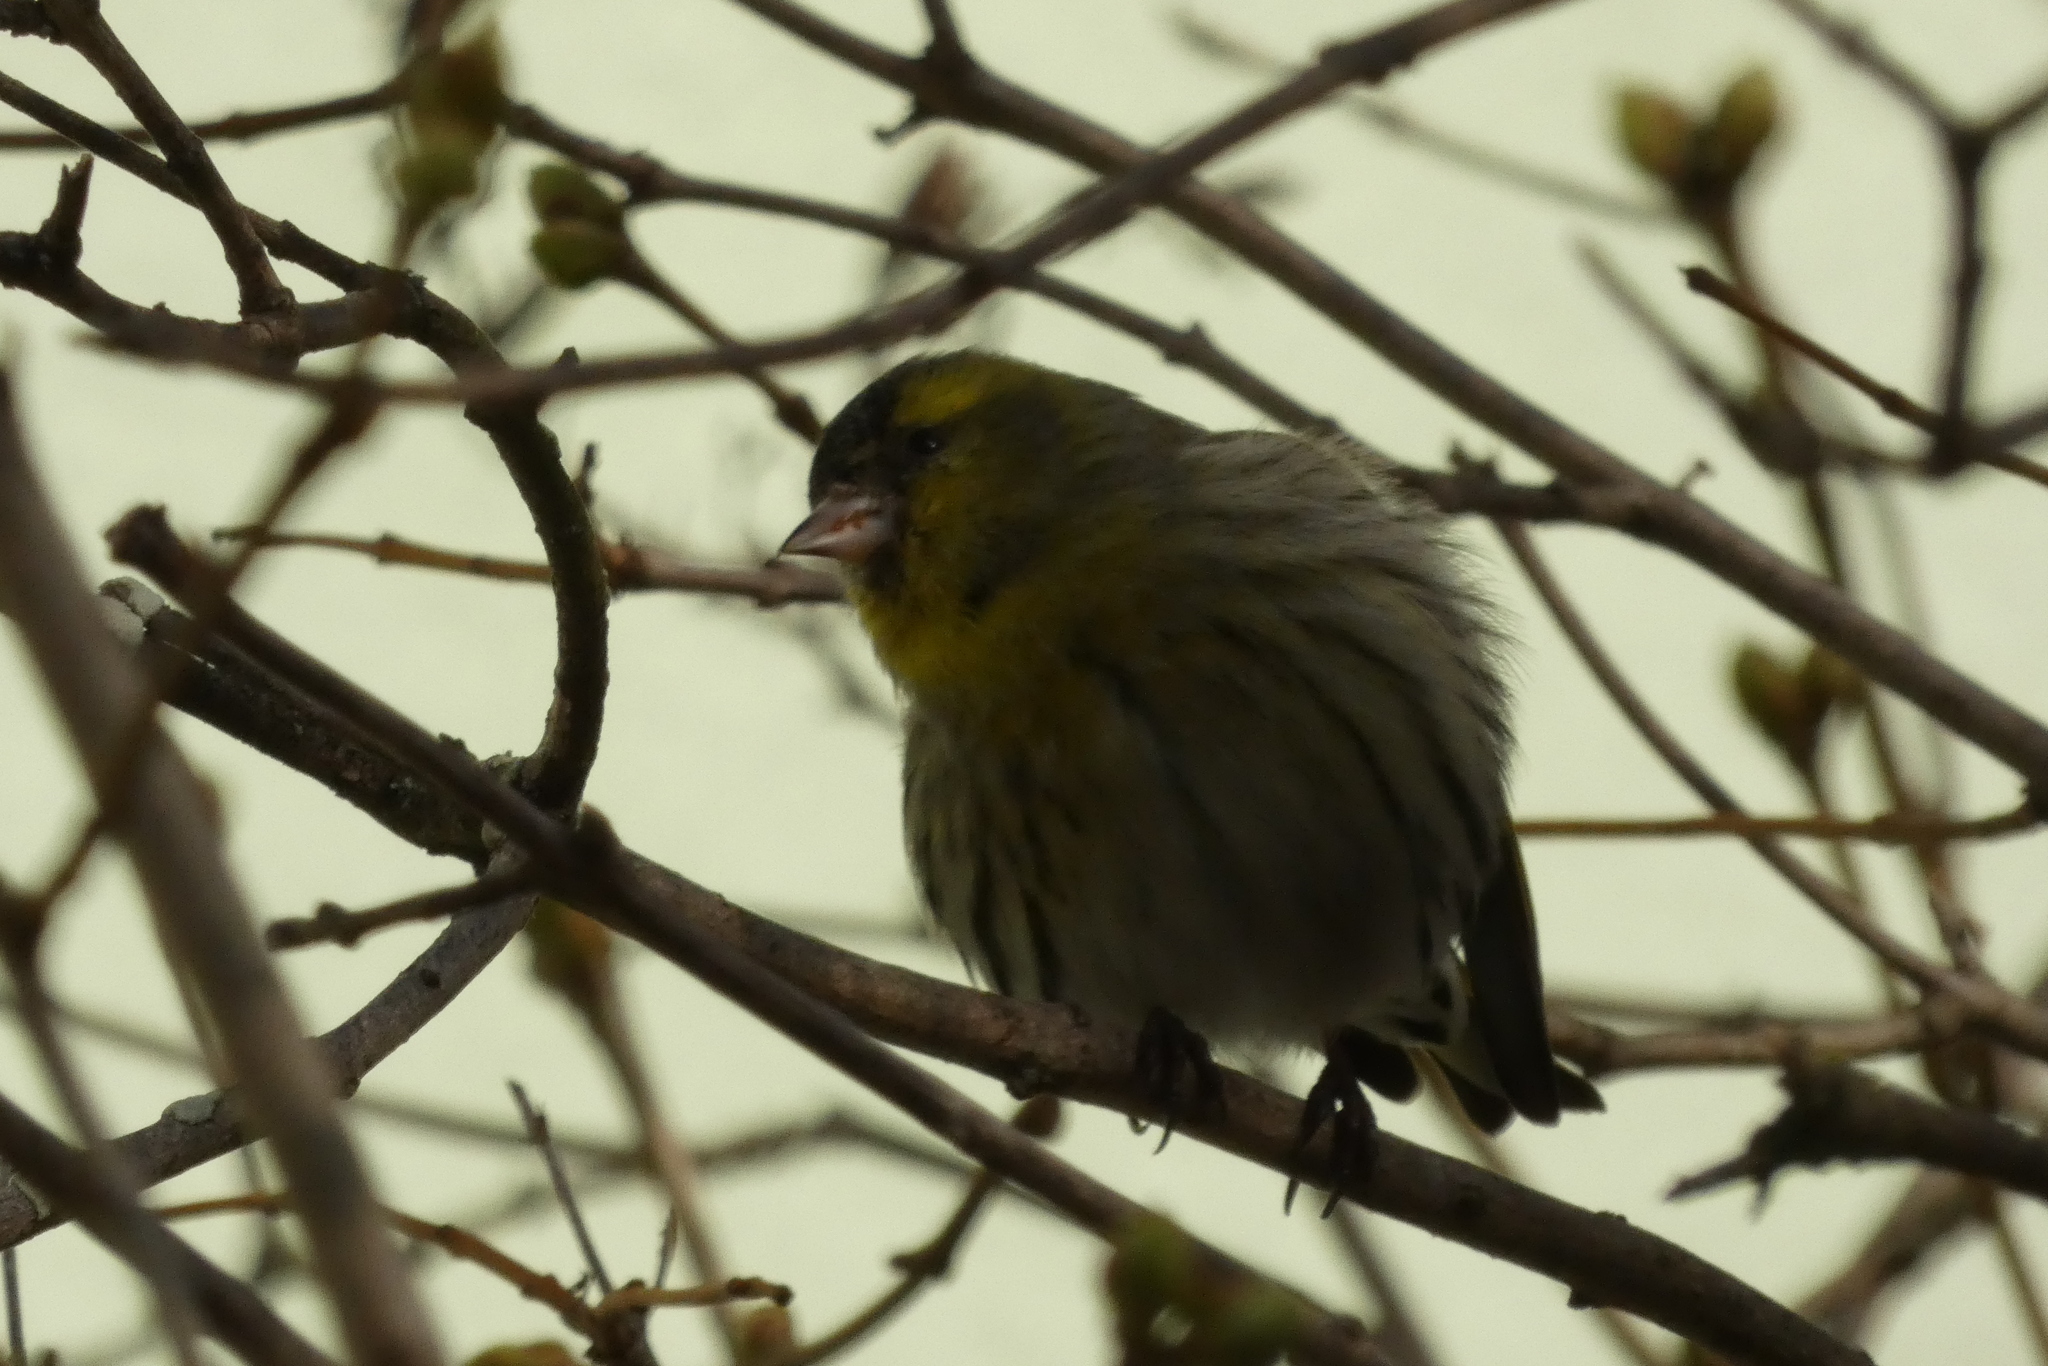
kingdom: Animalia
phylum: Chordata
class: Aves
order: Passeriformes
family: Fringillidae
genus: Spinus
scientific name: Spinus spinus
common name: Eurasian siskin
